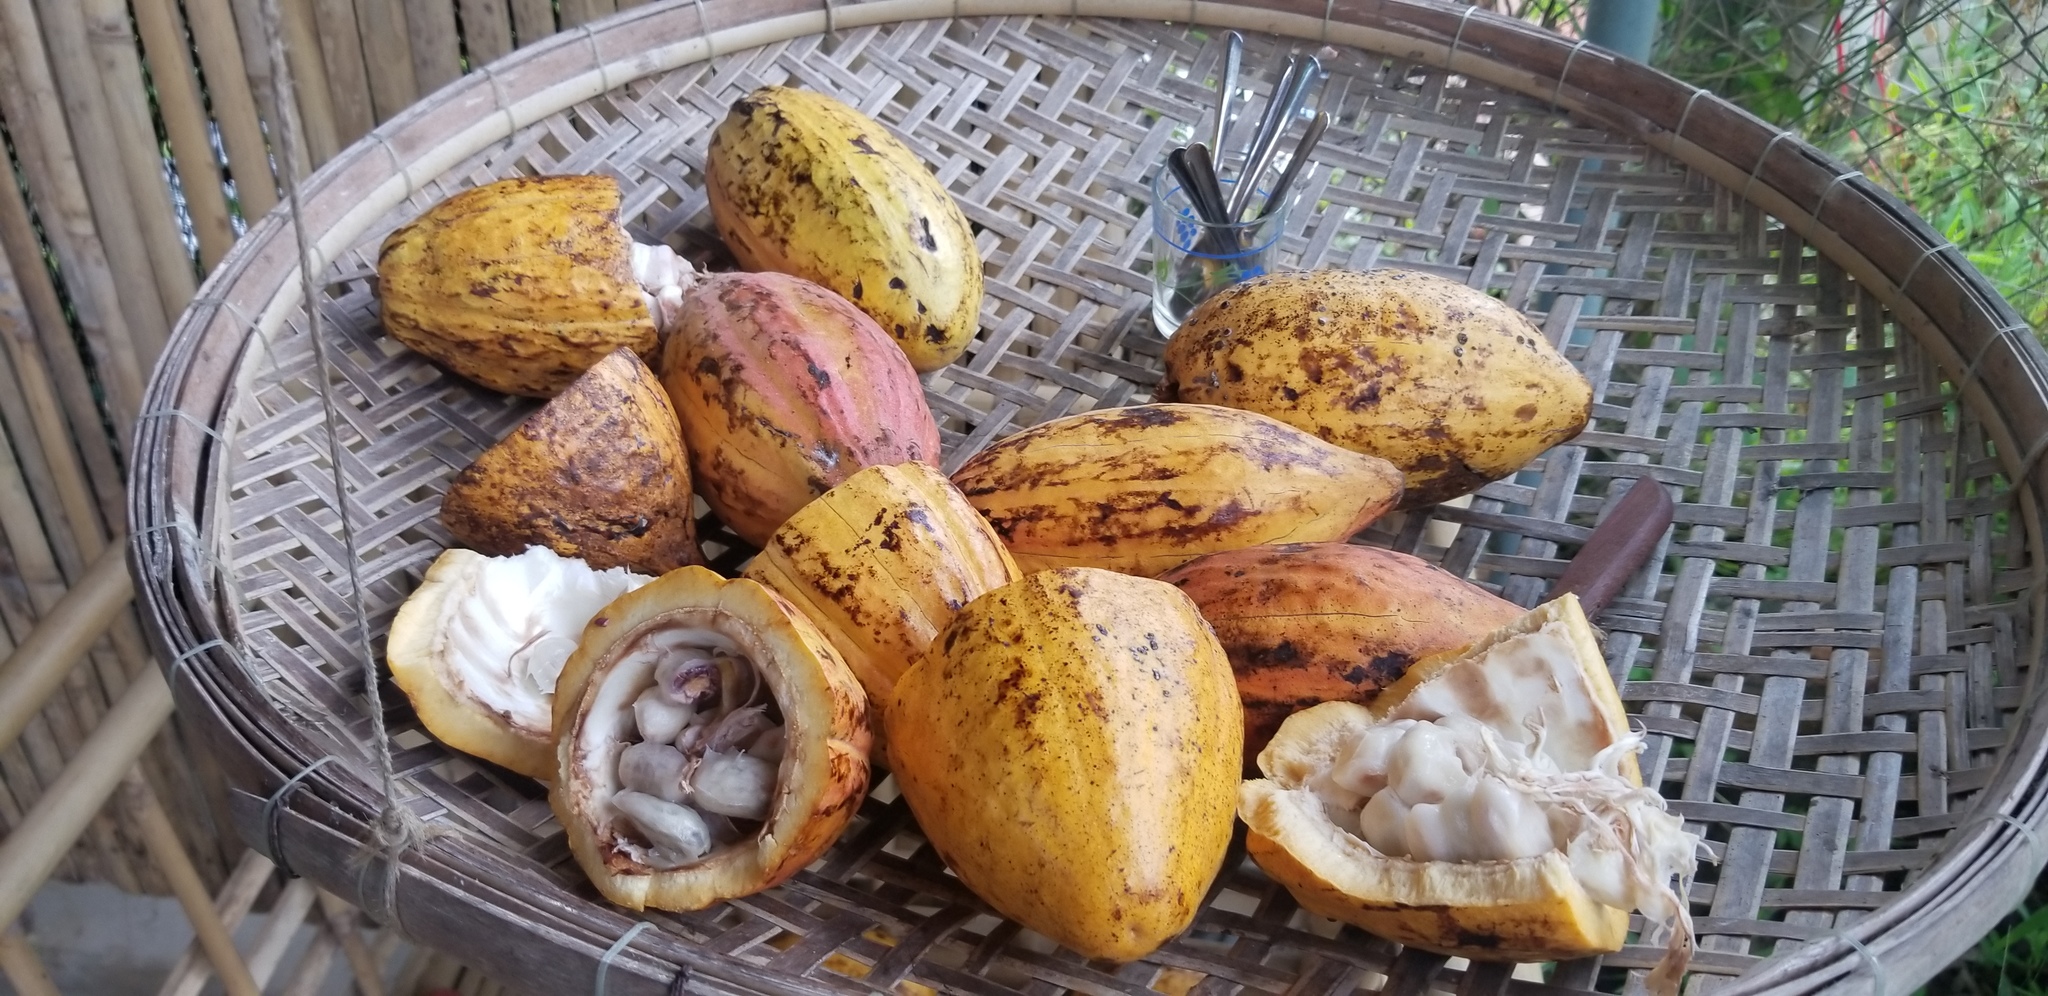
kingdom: Plantae
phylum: Tracheophyta
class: Magnoliopsida
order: Malvales
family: Malvaceae
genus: Theobroma
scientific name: Theobroma cacao
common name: Cocoa
